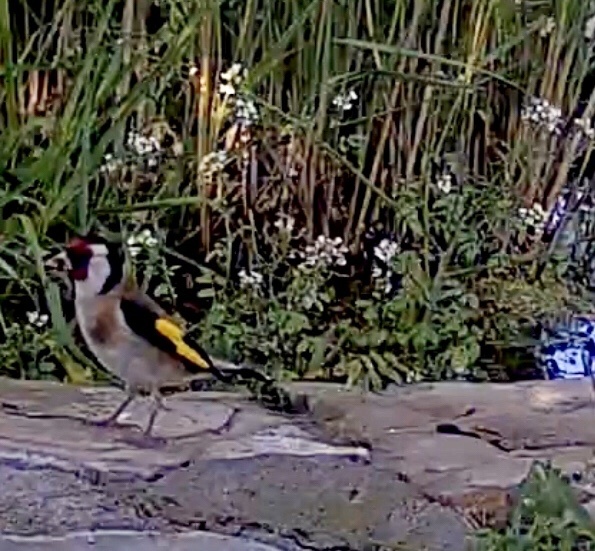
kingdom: Animalia
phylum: Chordata
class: Aves
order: Passeriformes
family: Fringillidae
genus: Carduelis
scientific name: Carduelis carduelis
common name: European goldfinch
